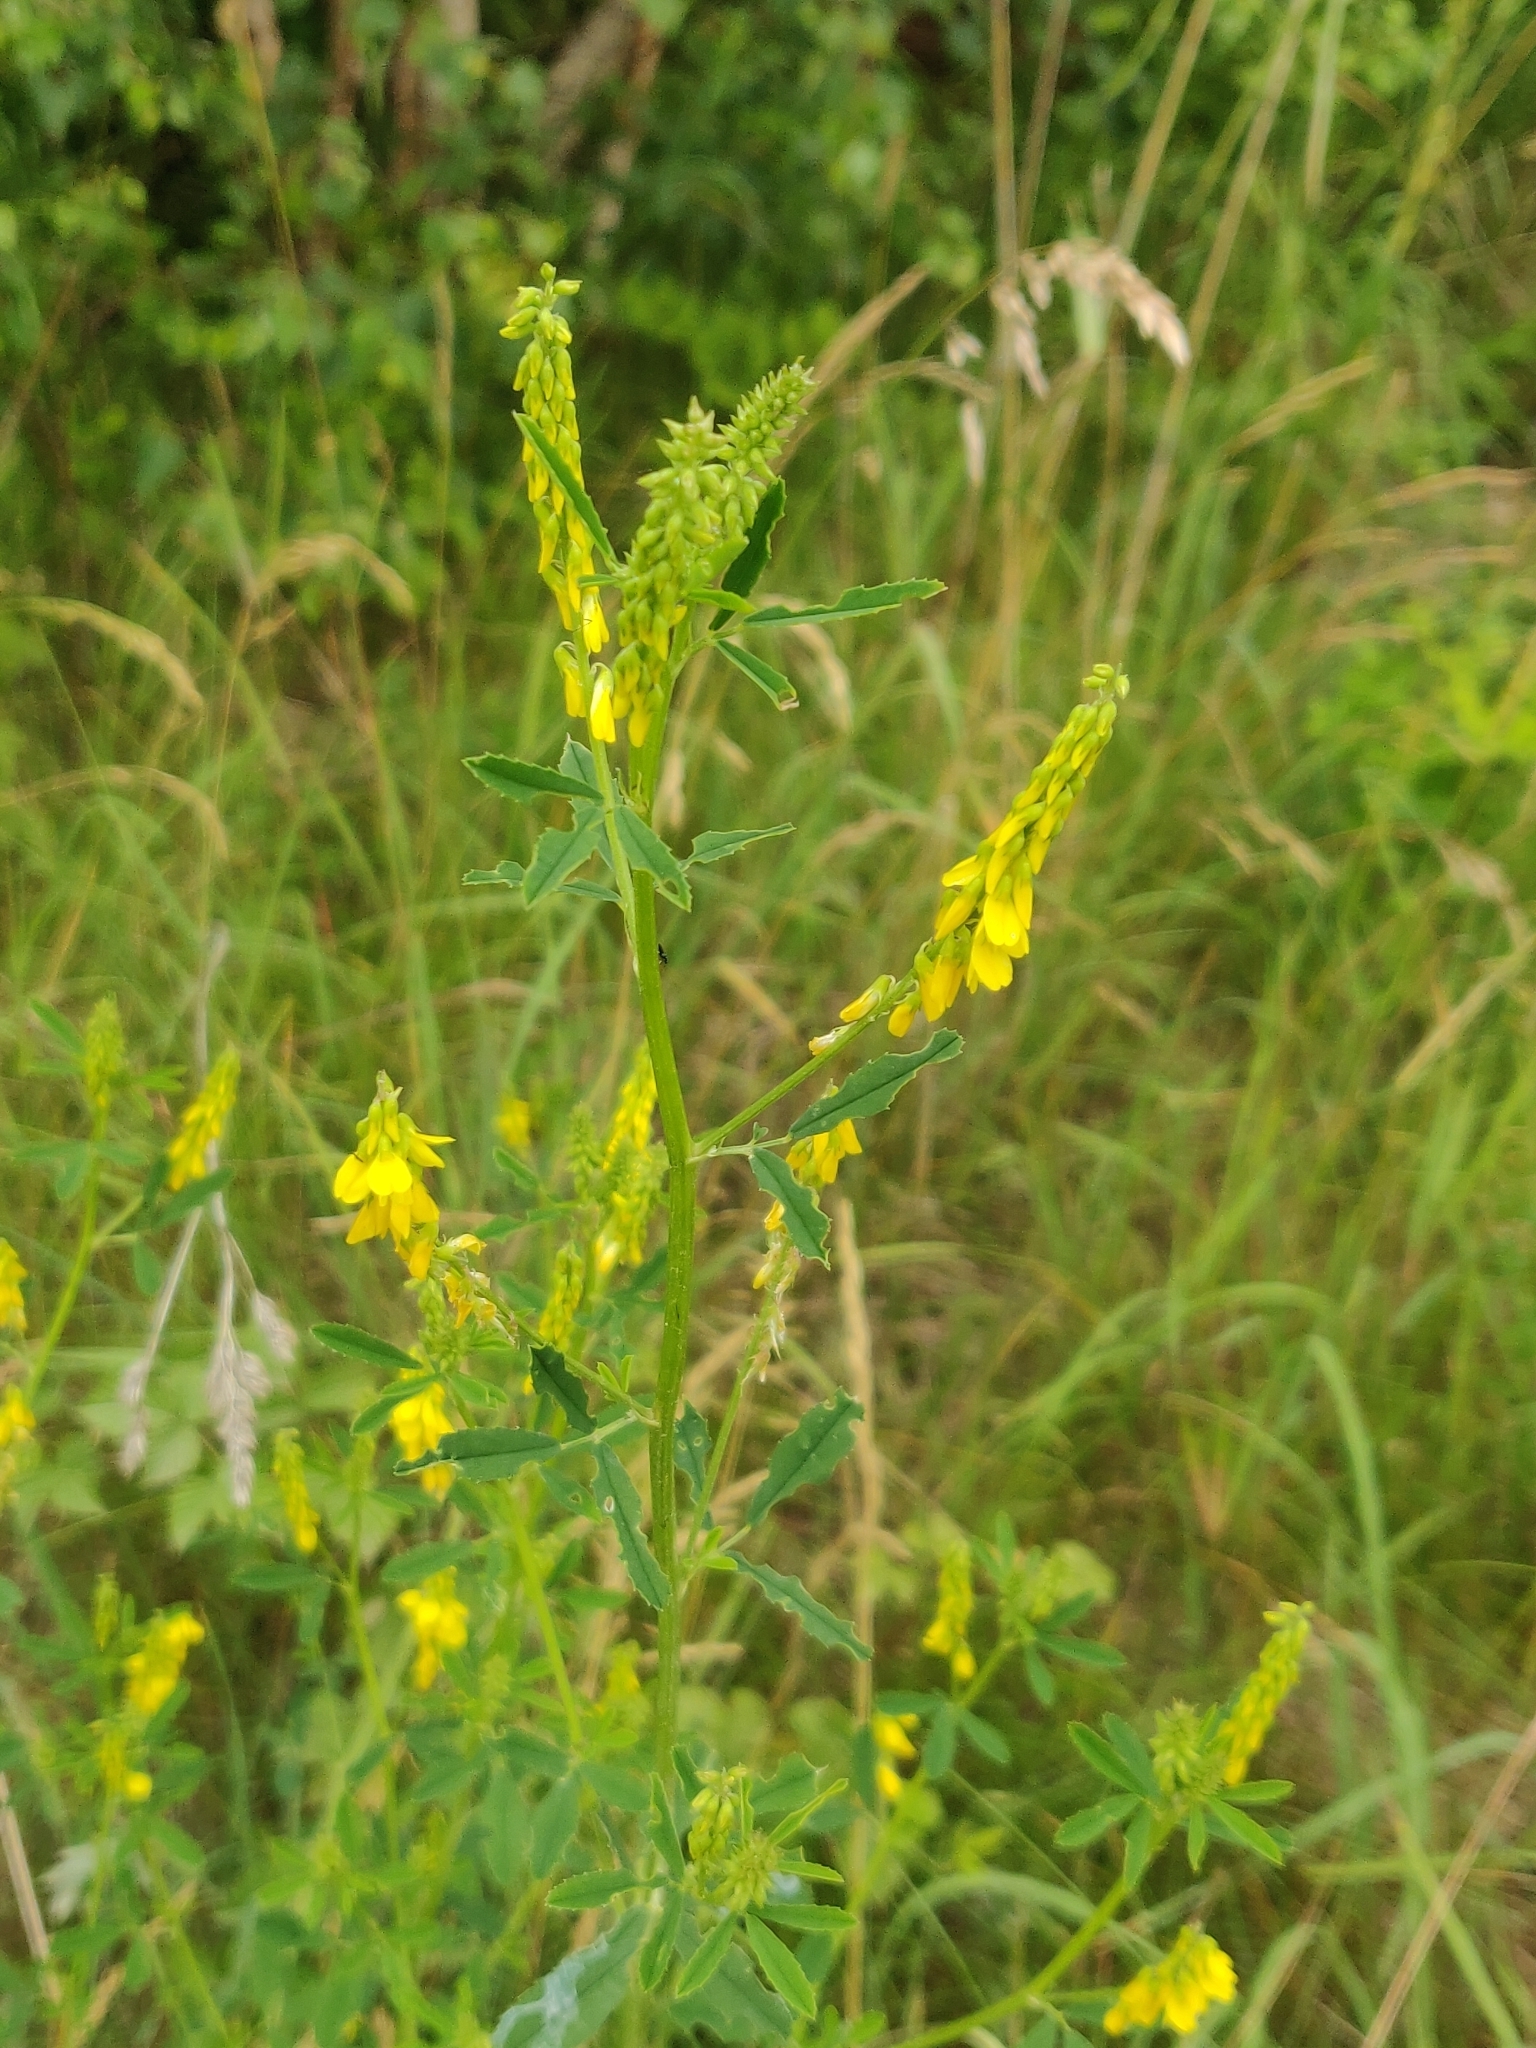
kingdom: Plantae
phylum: Tracheophyta
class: Magnoliopsida
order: Fabales
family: Fabaceae
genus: Melilotus
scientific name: Melilotus officinalis
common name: Sweetclover
